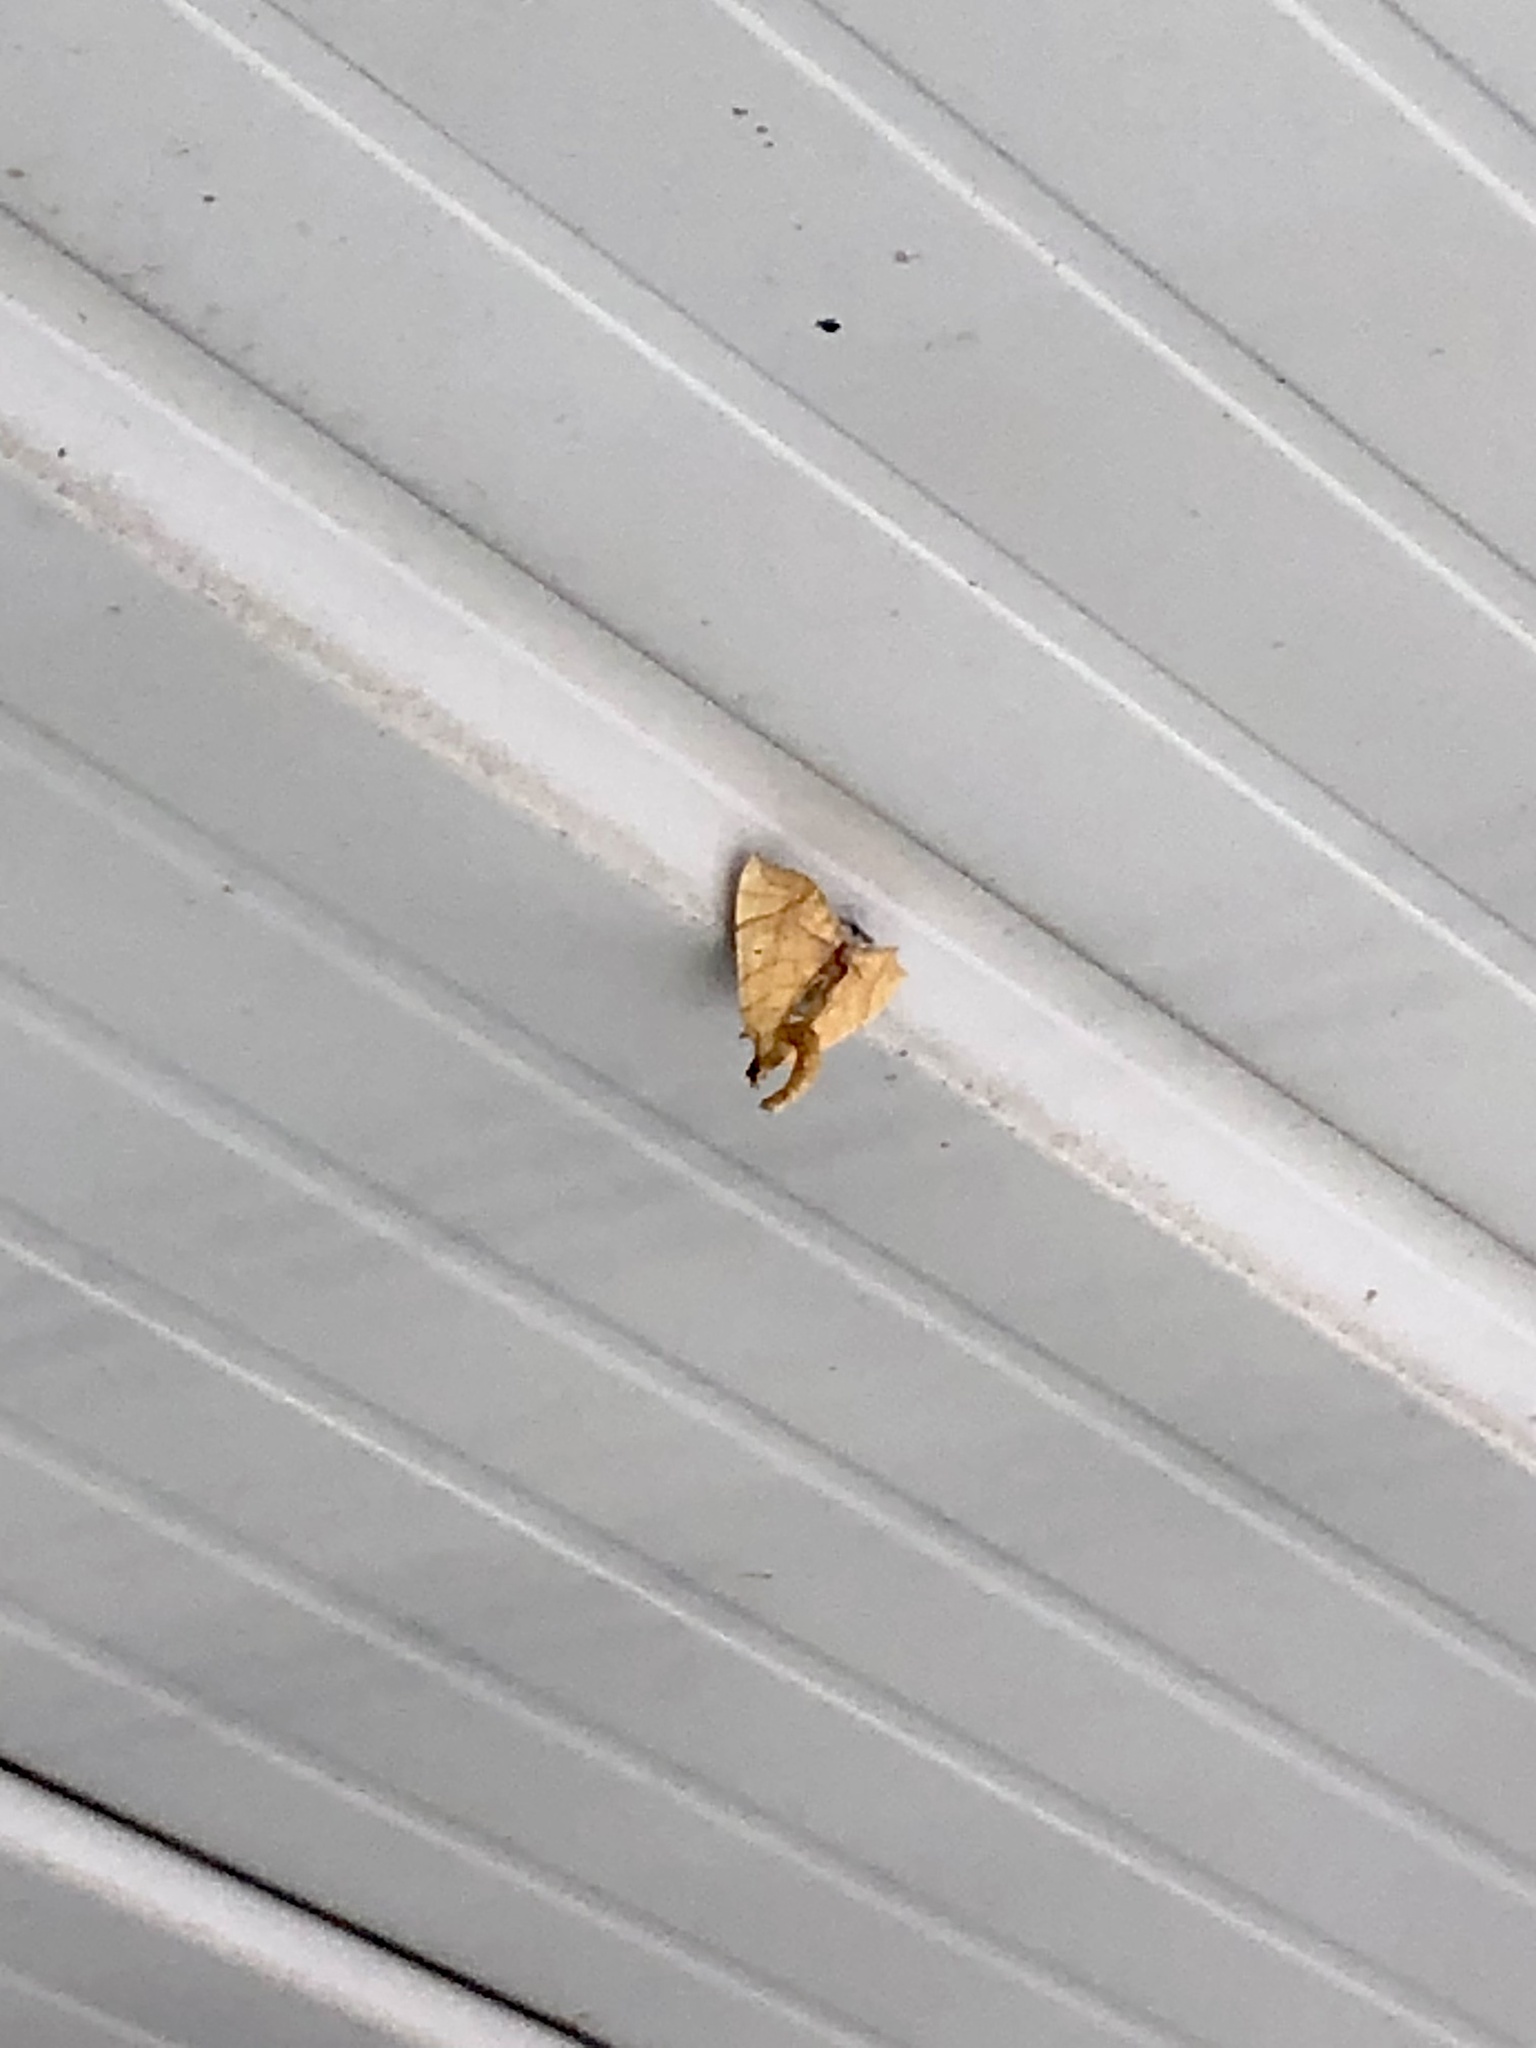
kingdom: Animalia
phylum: Arthropoda
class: Insecta
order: Lepidoptera
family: Geometridae
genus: Eulithis
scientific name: Eulithis
